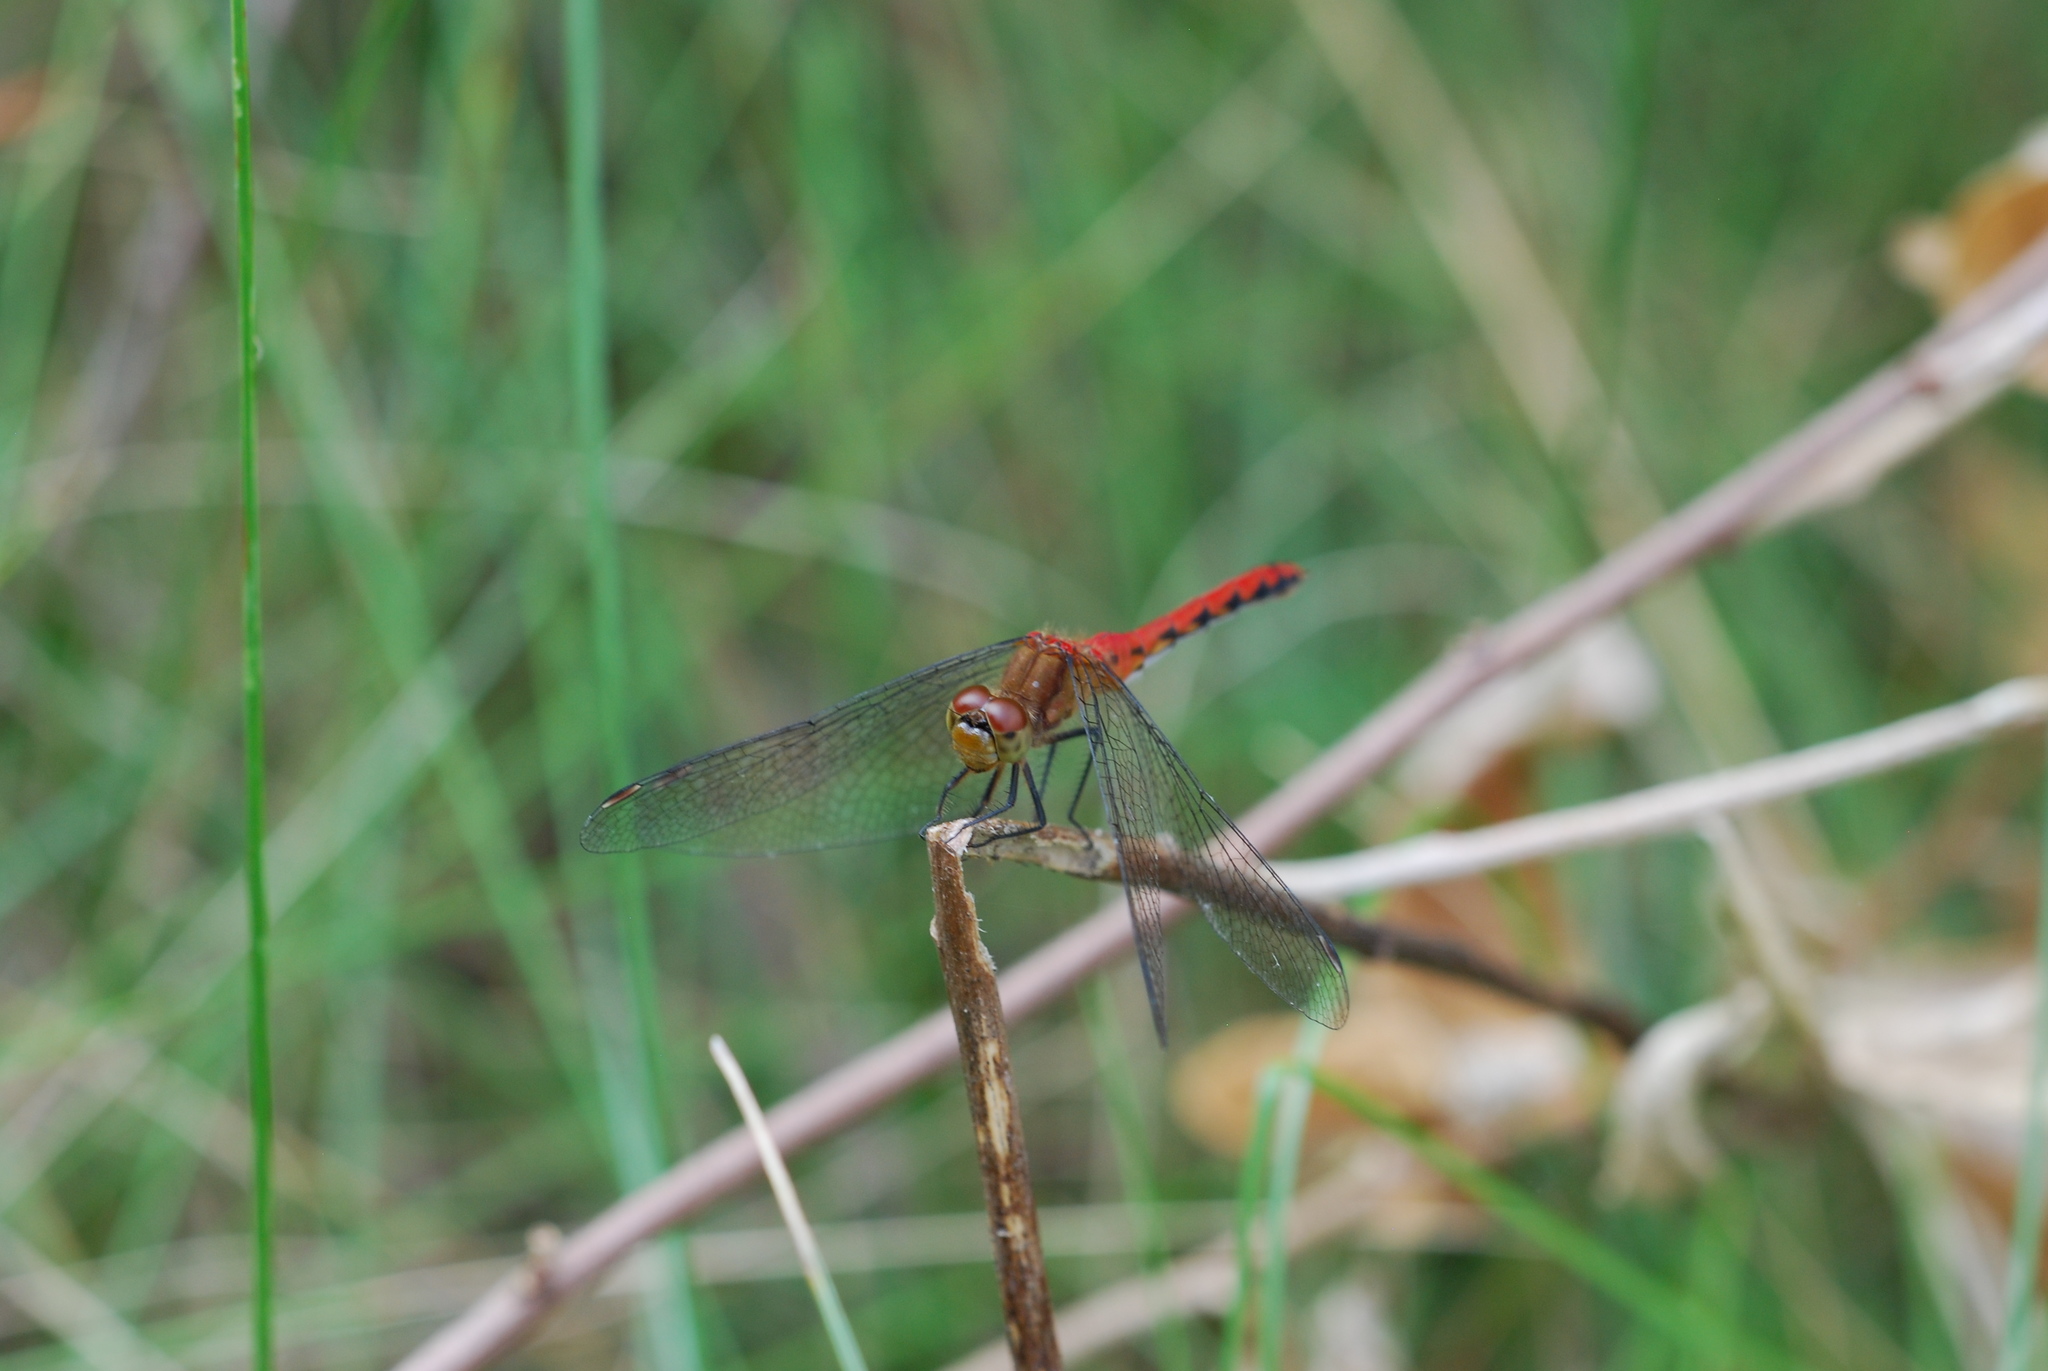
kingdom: Animalia
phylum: Arthropoda
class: Insecta
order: Odonata
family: Libellulidae
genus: Sympetrum
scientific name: Sympetrum
